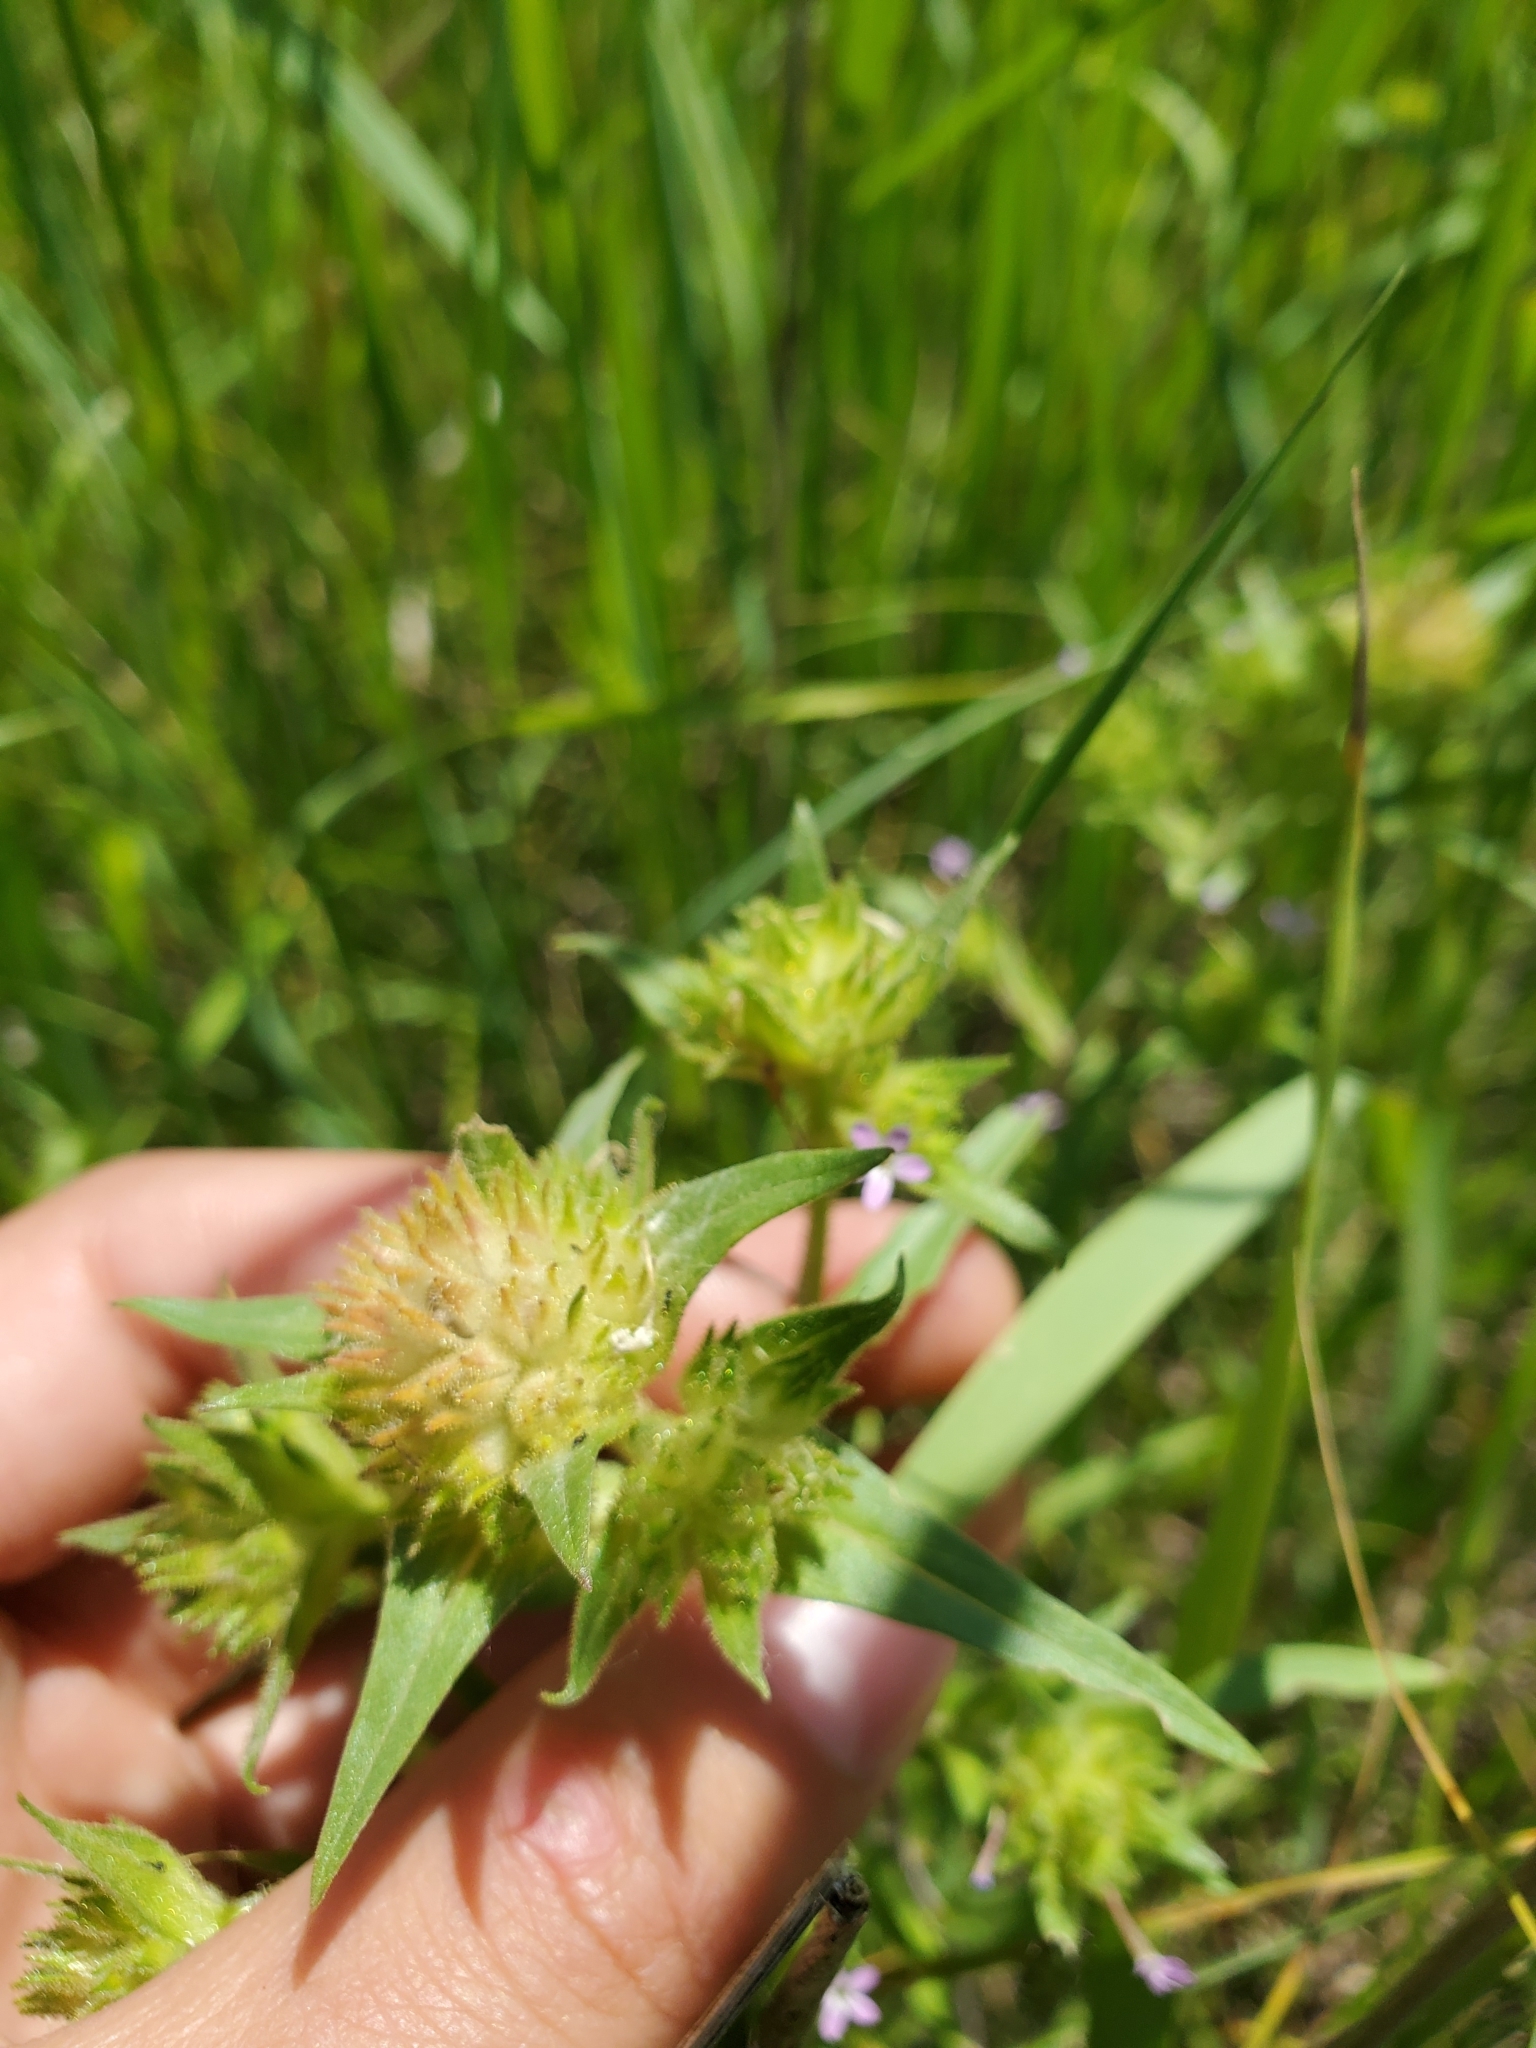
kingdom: Plantae
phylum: Tracheophyta
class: Magnoliopsida
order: Ericales
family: Polemoniaceae
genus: Collomia
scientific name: Collomia linearis
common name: Tiny trumpet
